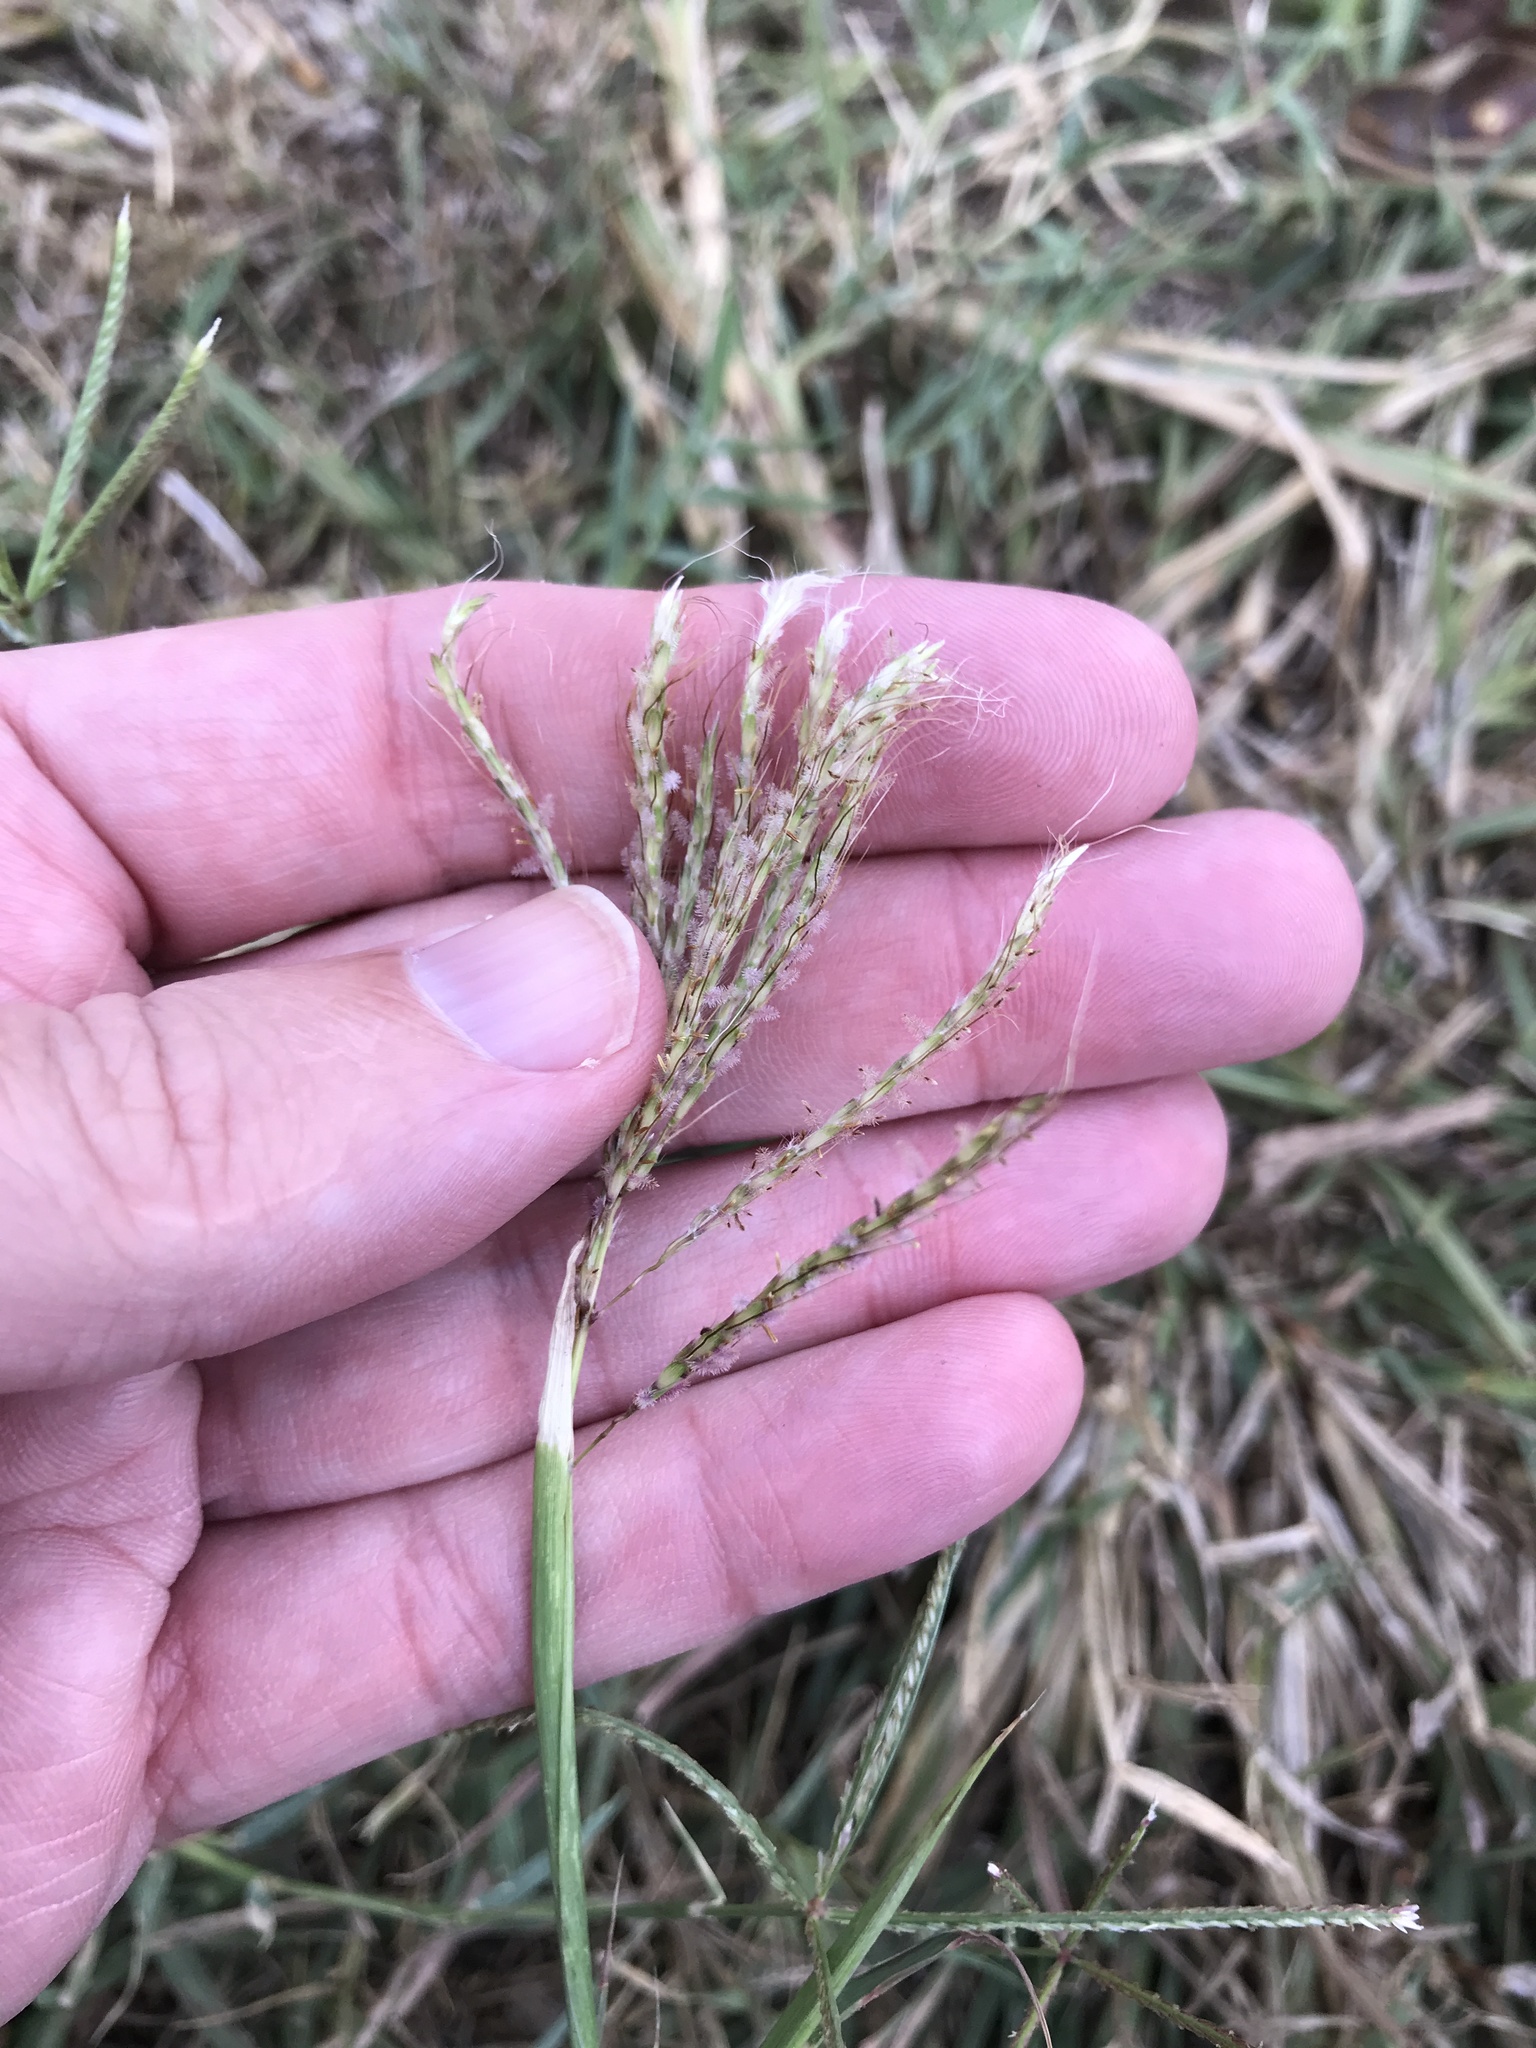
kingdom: Plantae
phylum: Tracheophyta
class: Liliopsida
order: Poales
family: Poaceae
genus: Bothriochloa
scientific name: Bothriochloa ischaemum
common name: Yellow bluestem
